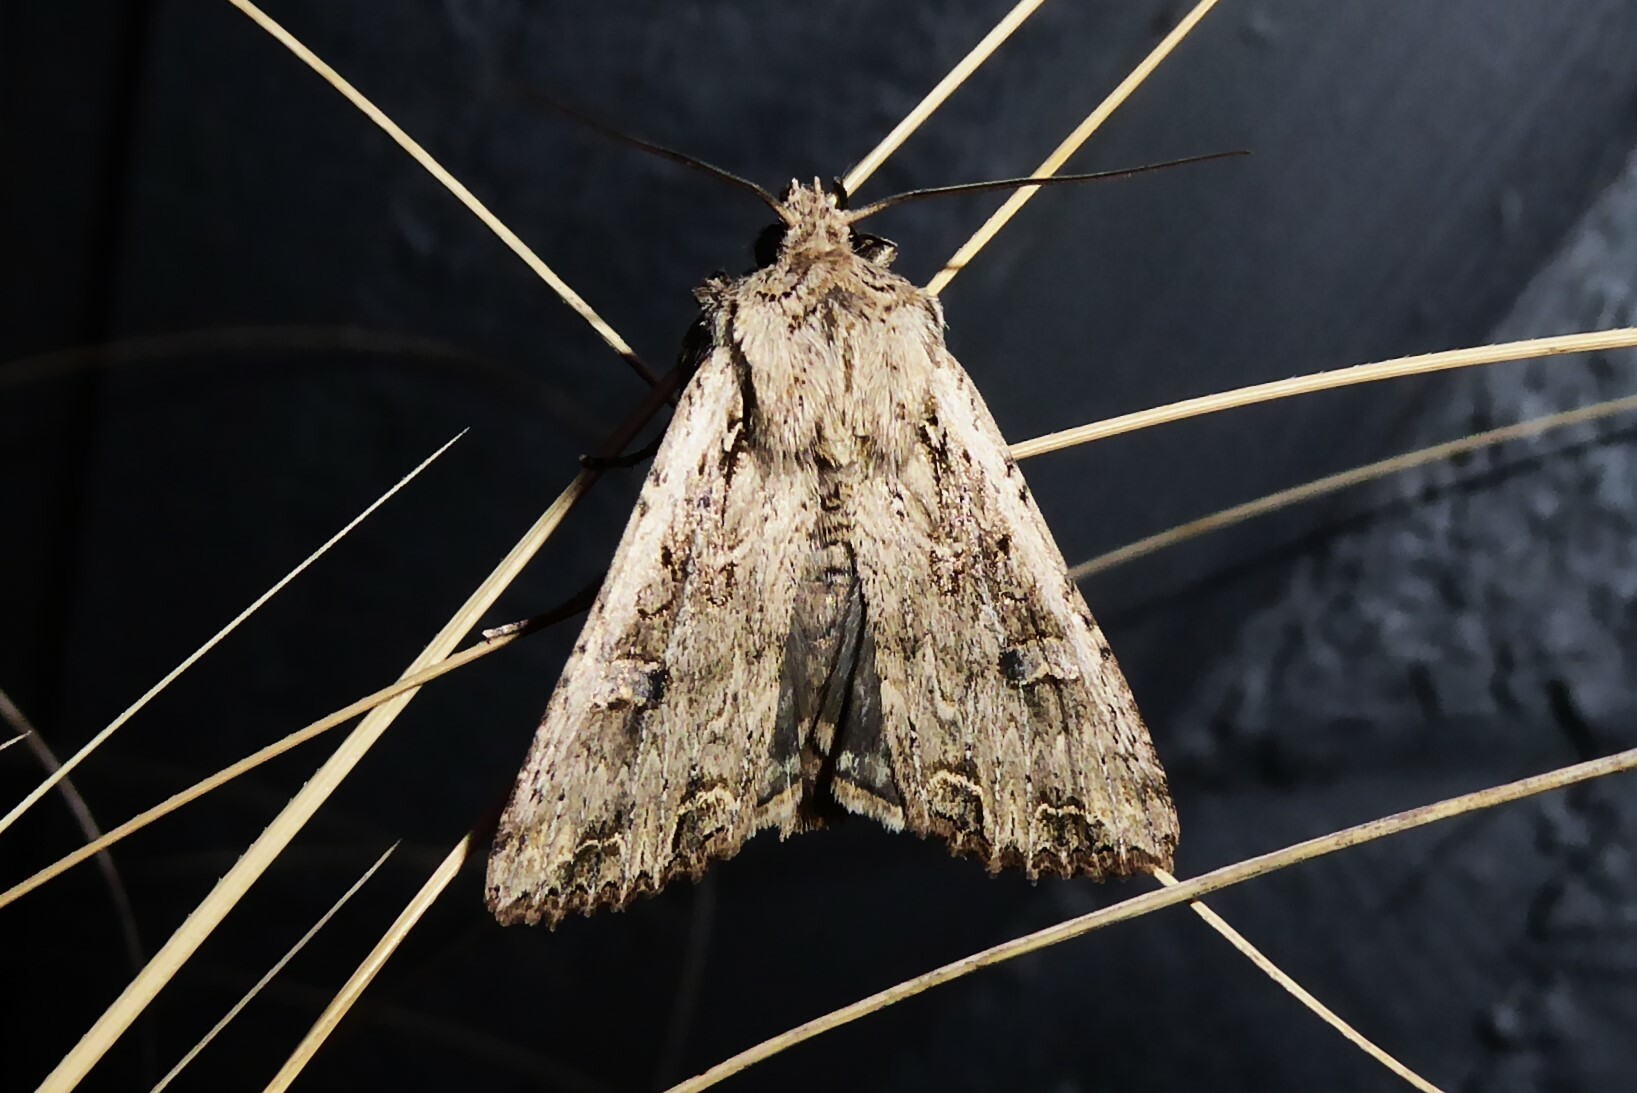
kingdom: Animalia
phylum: Arthropoda
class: Insecta
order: Lepidoptera
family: Noctuidae
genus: Ichneutica
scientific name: Ichneutica lignana
